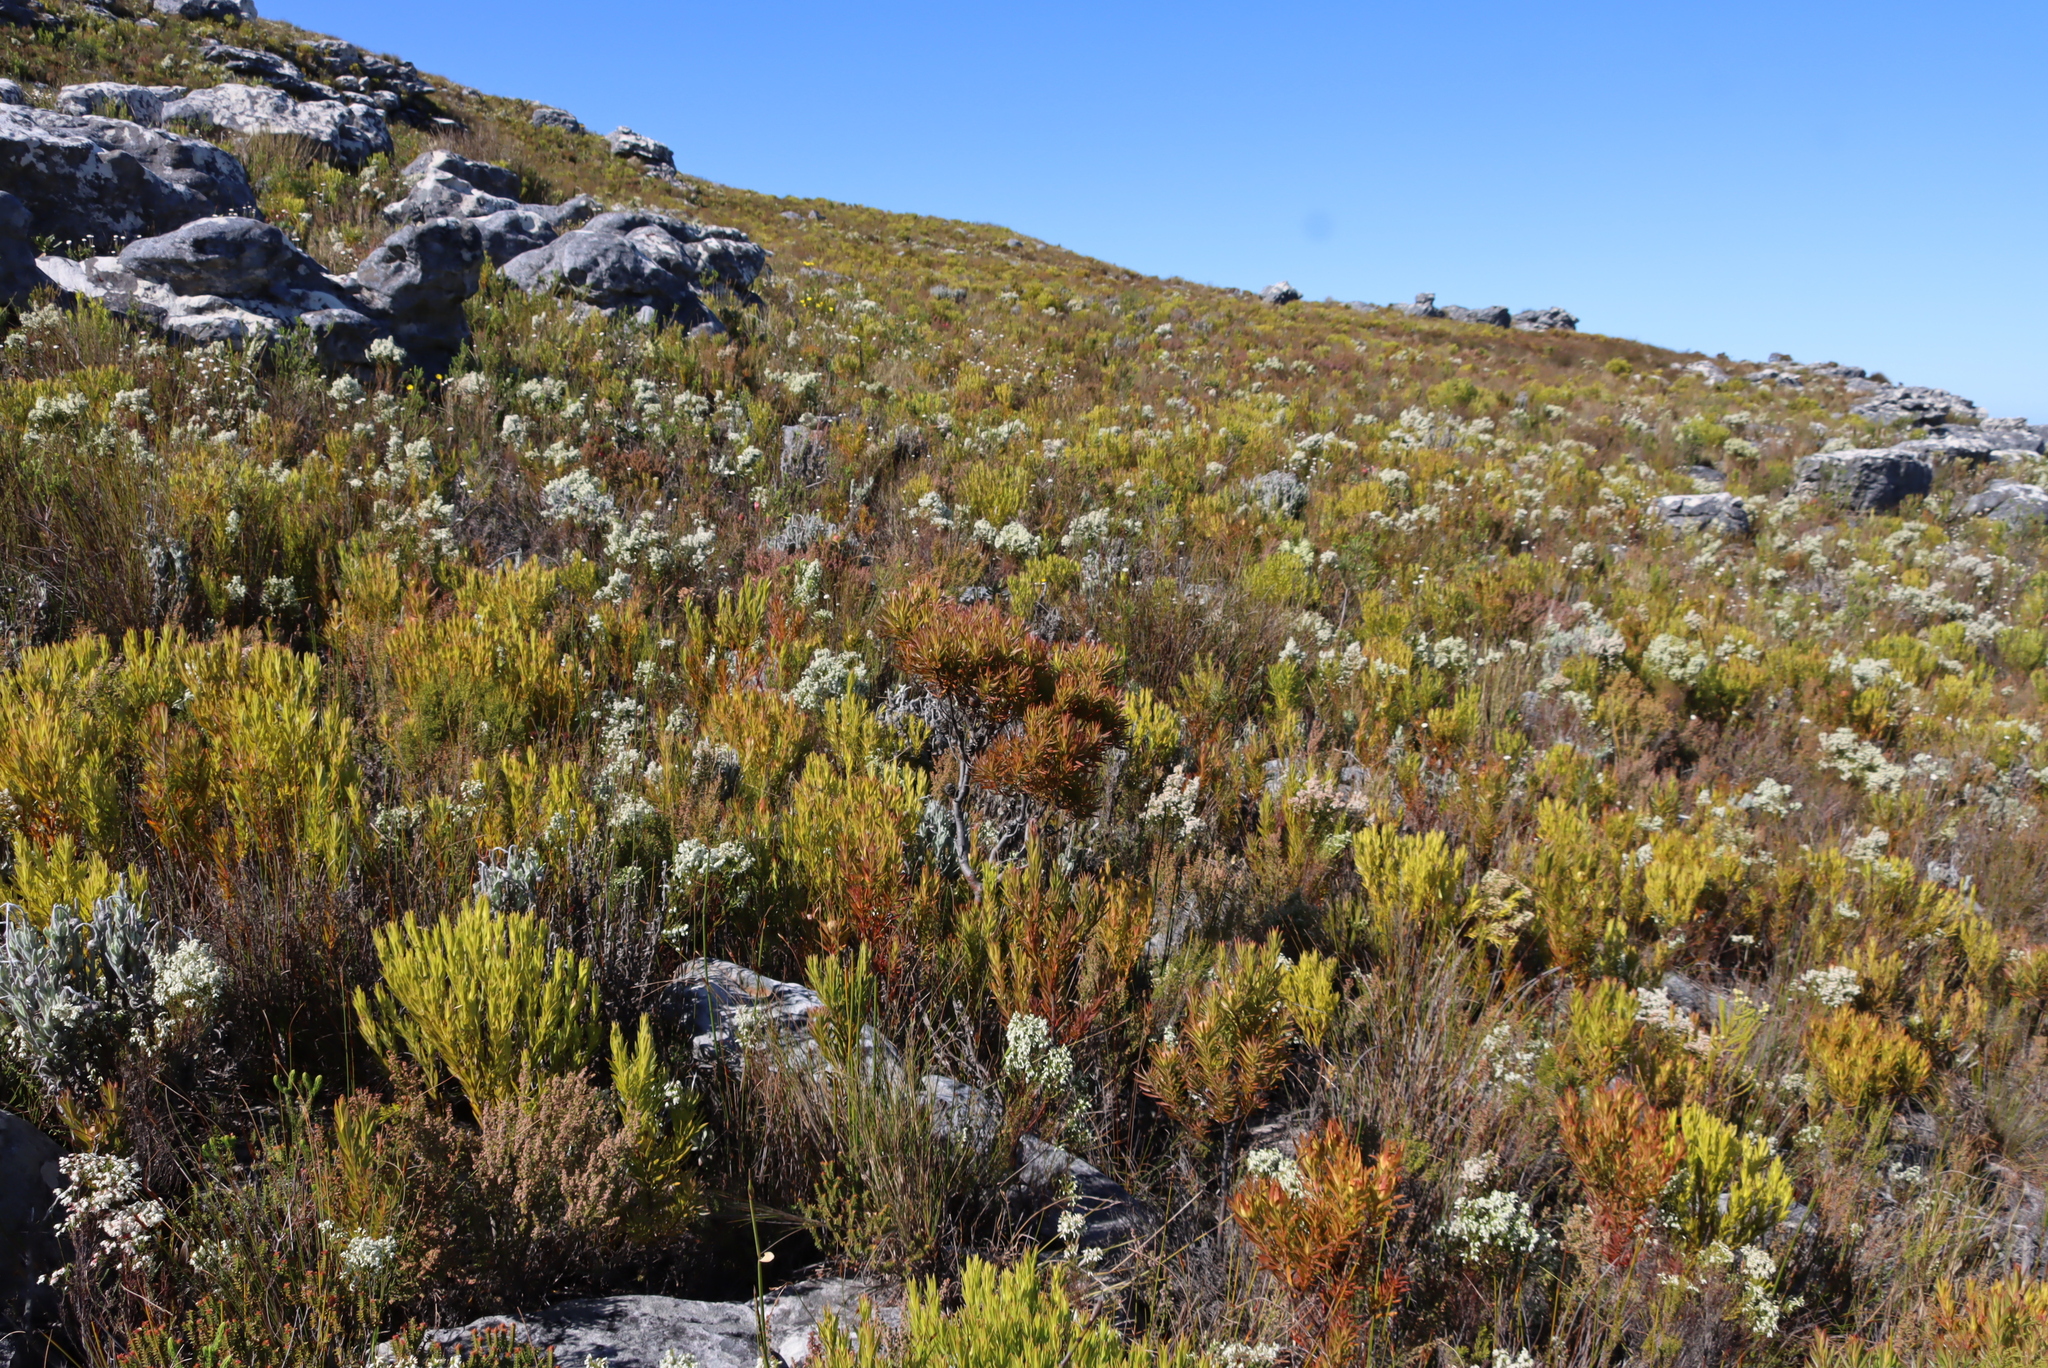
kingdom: Plantae
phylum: Tracheophyta
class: Magnoliopsida
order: Proteales
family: Proteaceae
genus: Leucadendron
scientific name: Leucadendron xanthoconus
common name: Sickle-leaf conebush
